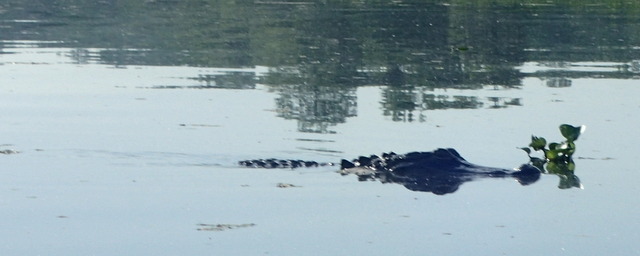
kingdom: Animalia
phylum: Chordata
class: Crocodylia
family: Alligatoridae
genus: Alligator
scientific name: Alligator mississippiensis
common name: American alligator
